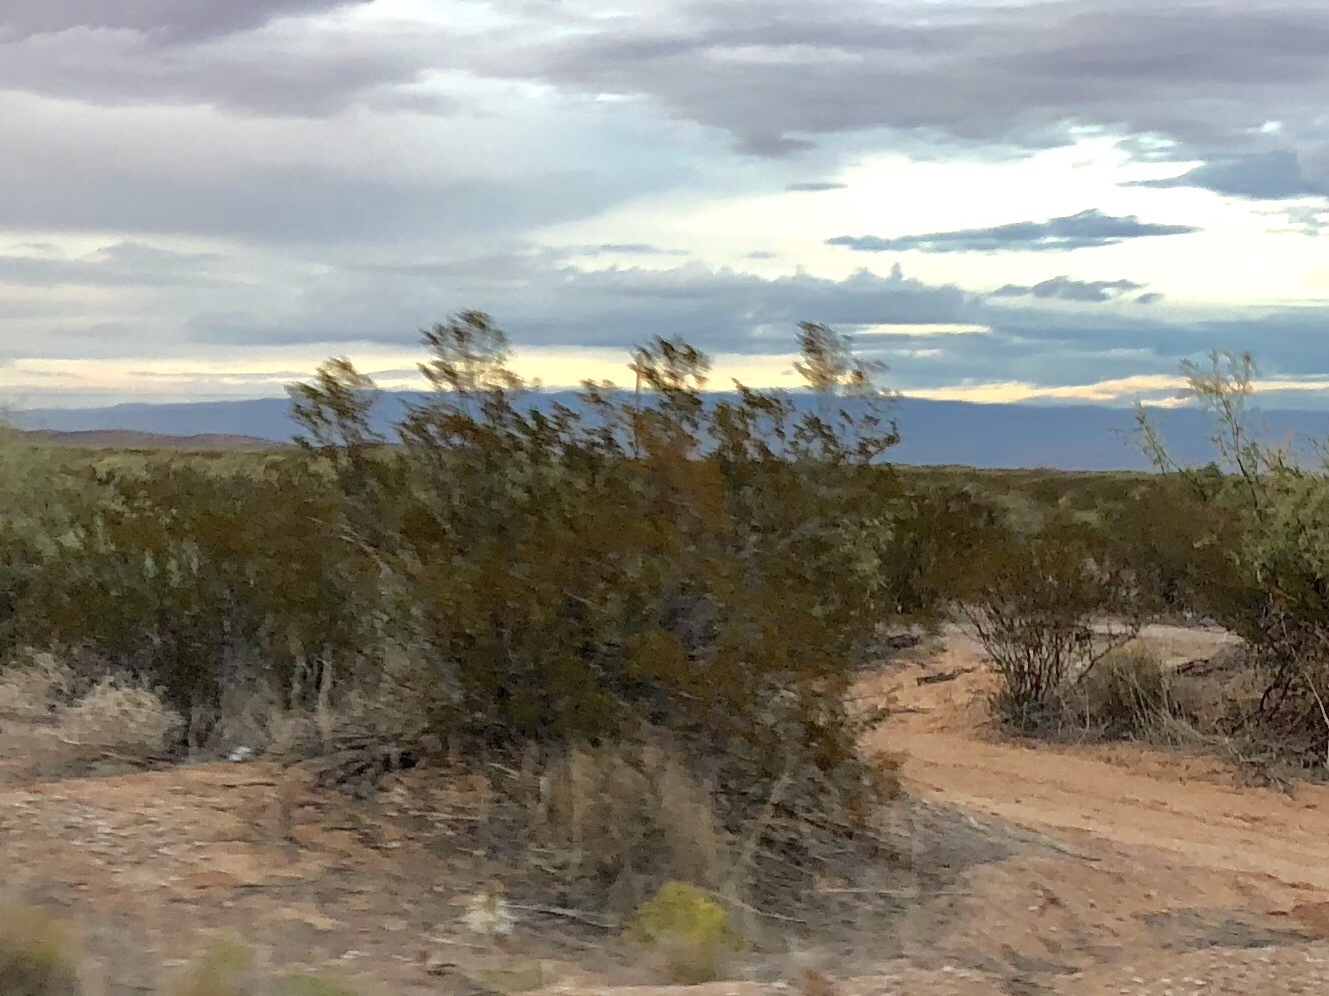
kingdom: Plantae
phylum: Tracheophyta
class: Magnoliopsida
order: Zygophyllales
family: Zygophyllaceae
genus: Larrea
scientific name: Larrea tridentata
